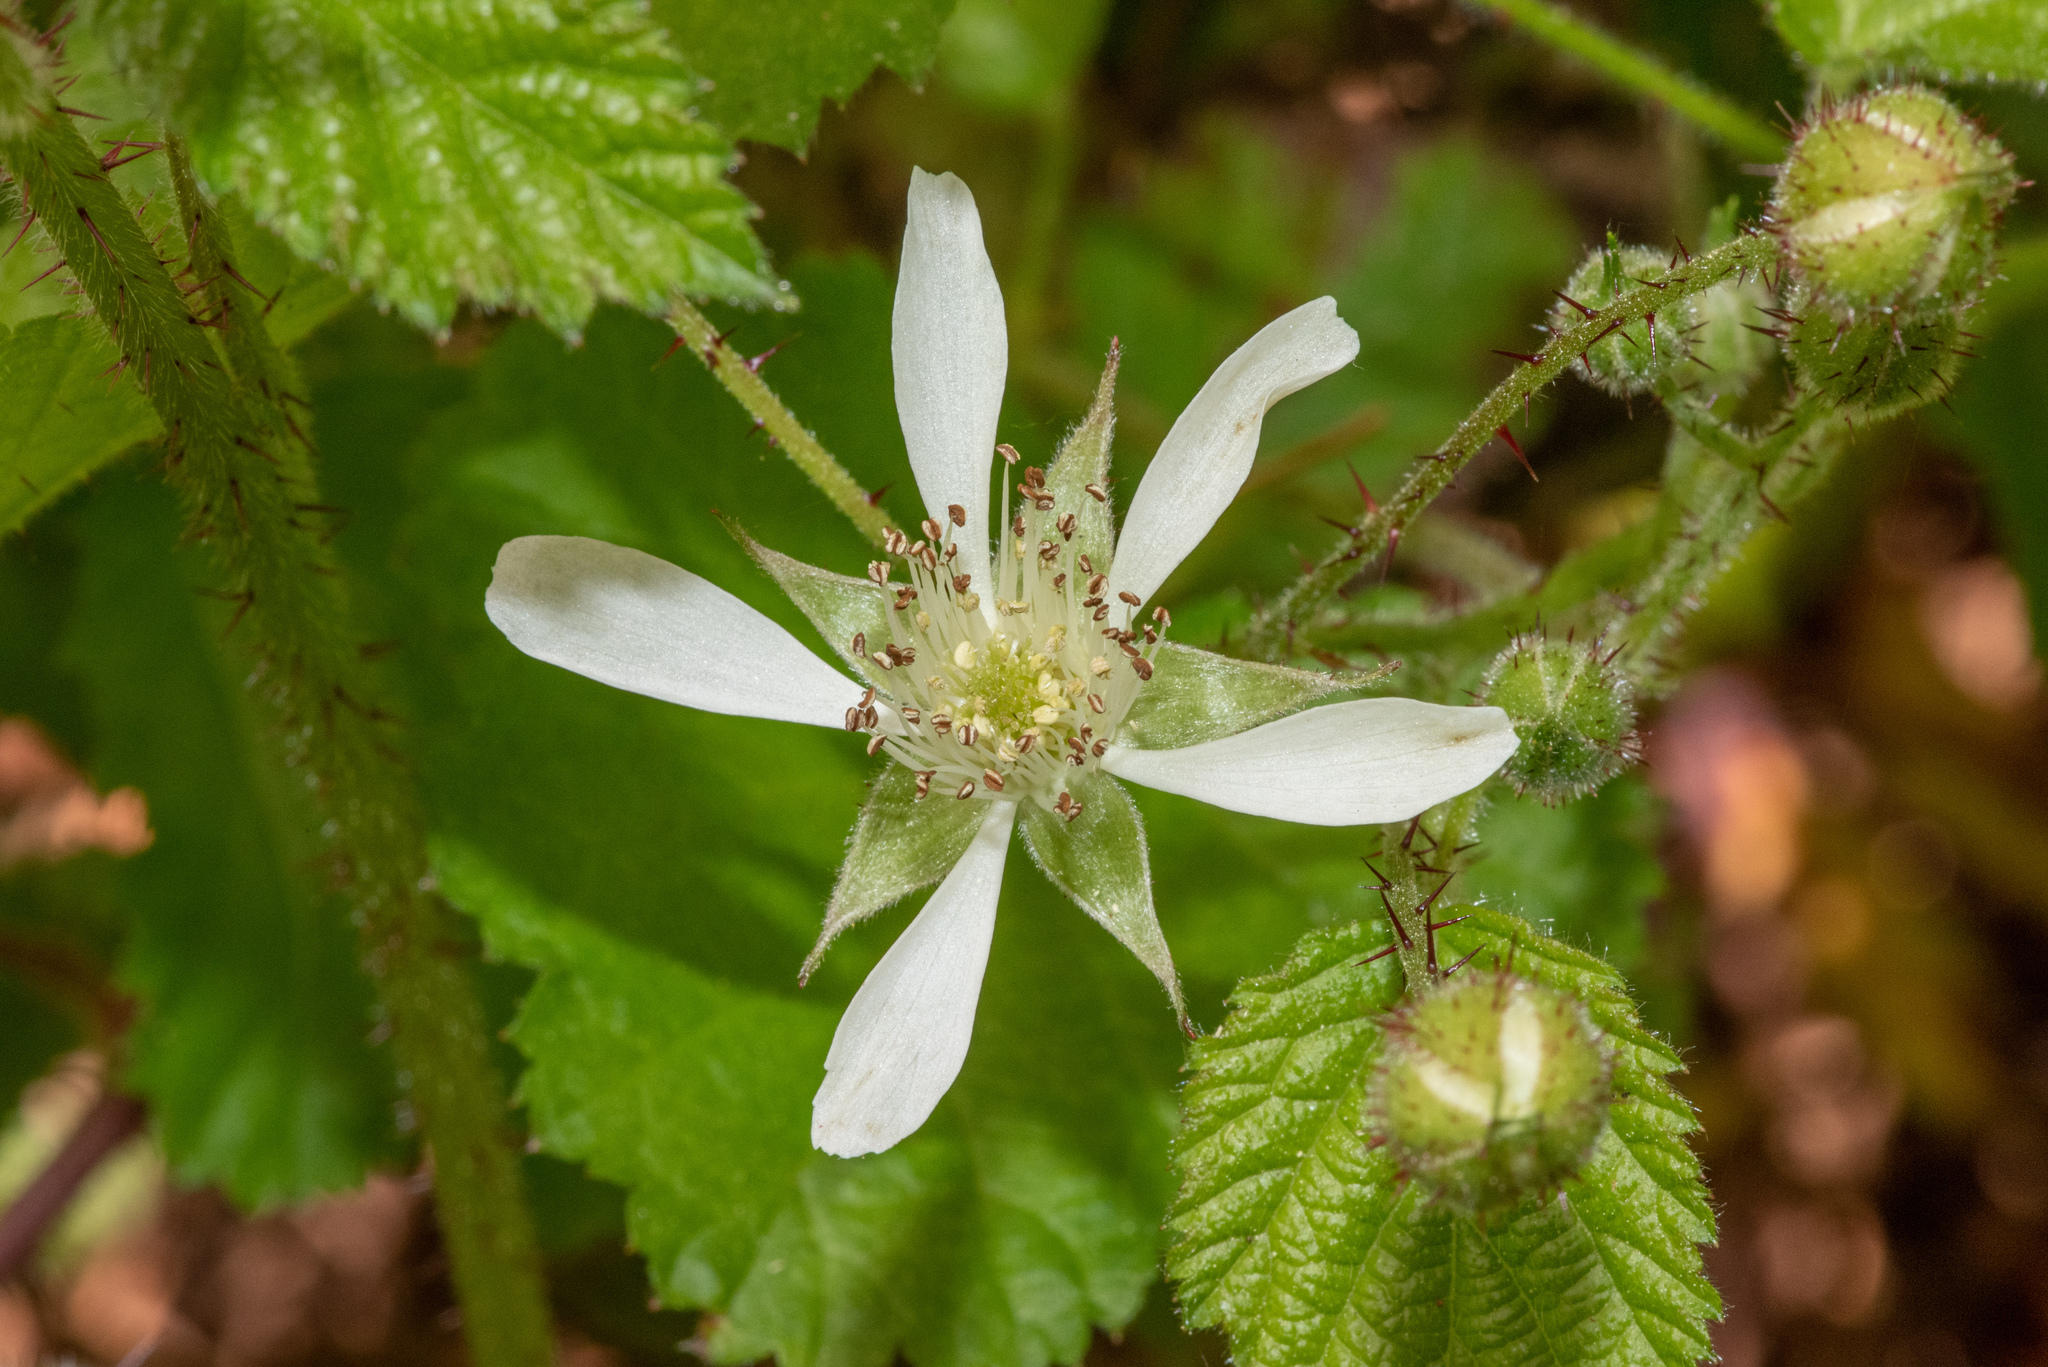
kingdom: Plantae
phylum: Tracheophyta
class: Magnoliopsida
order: Rosales
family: Rosaceae
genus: Rubus
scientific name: Rubus ursinus
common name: Pacific blackberry
